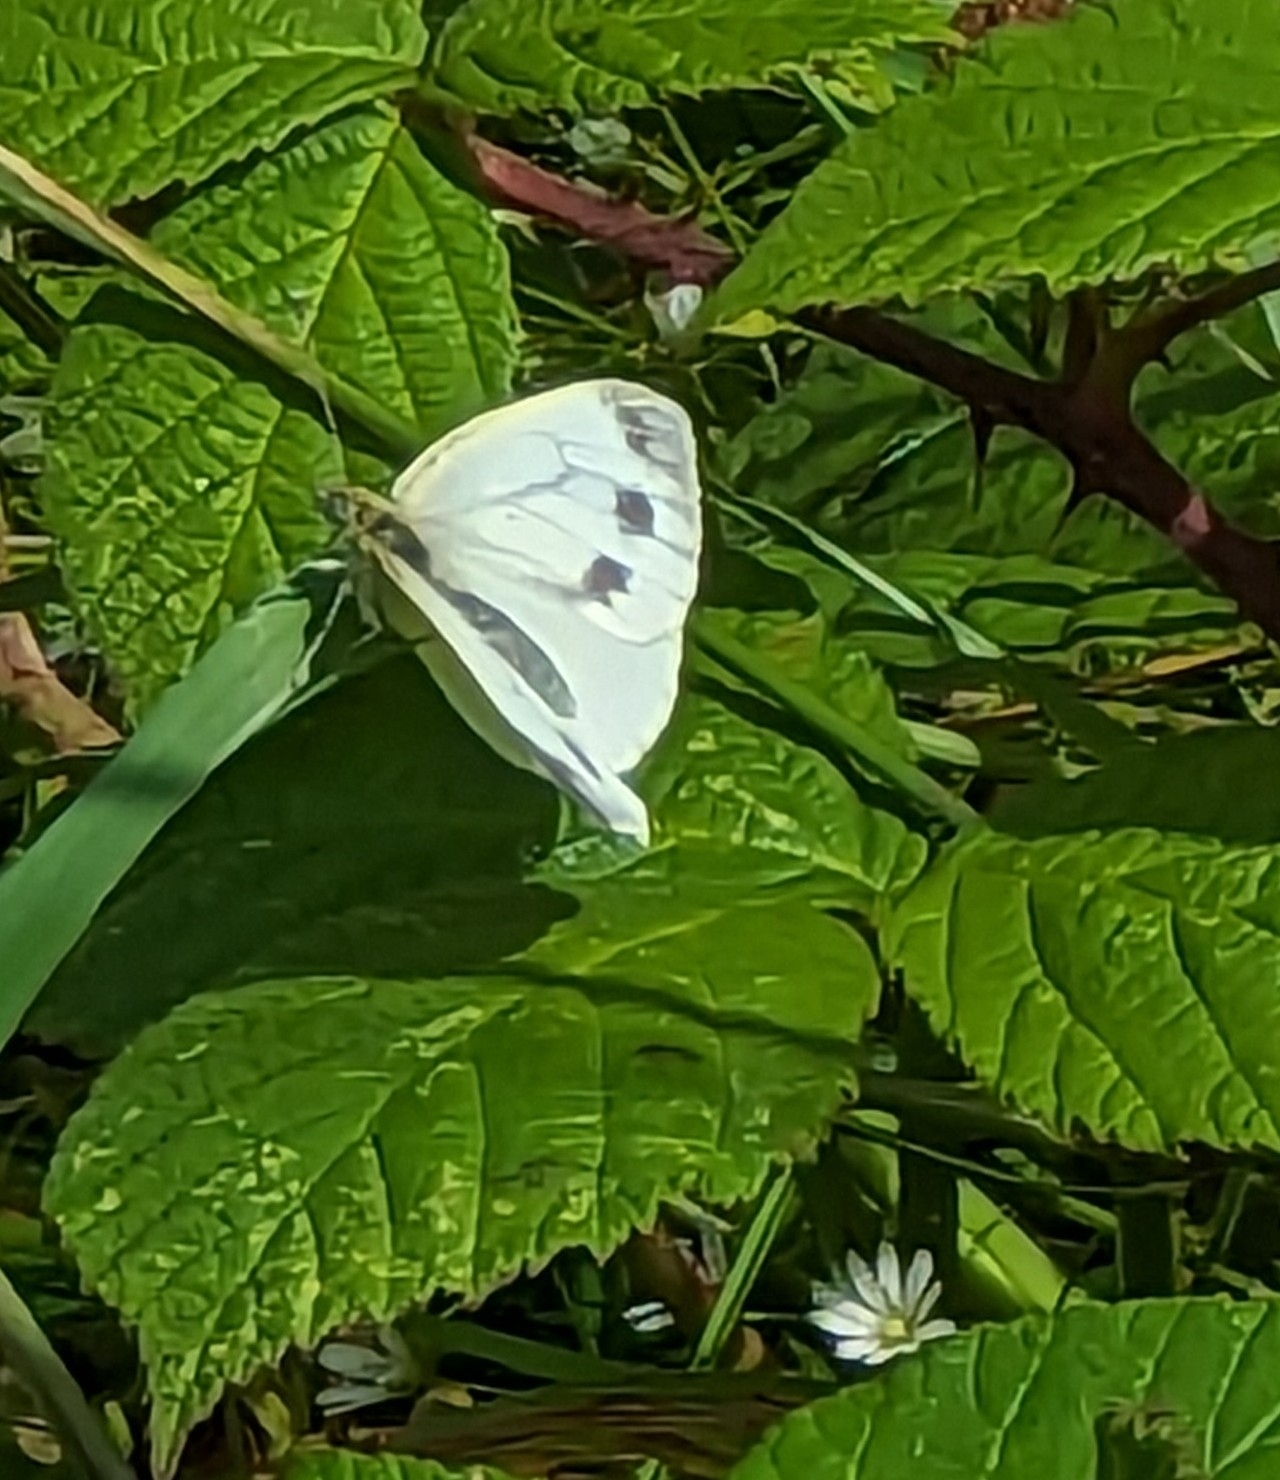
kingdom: Animalia
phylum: Arthropoda
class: Insecta
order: Lepidoptera
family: Pieridae
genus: Pieris
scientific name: Pieris napi
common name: Green-veined white
